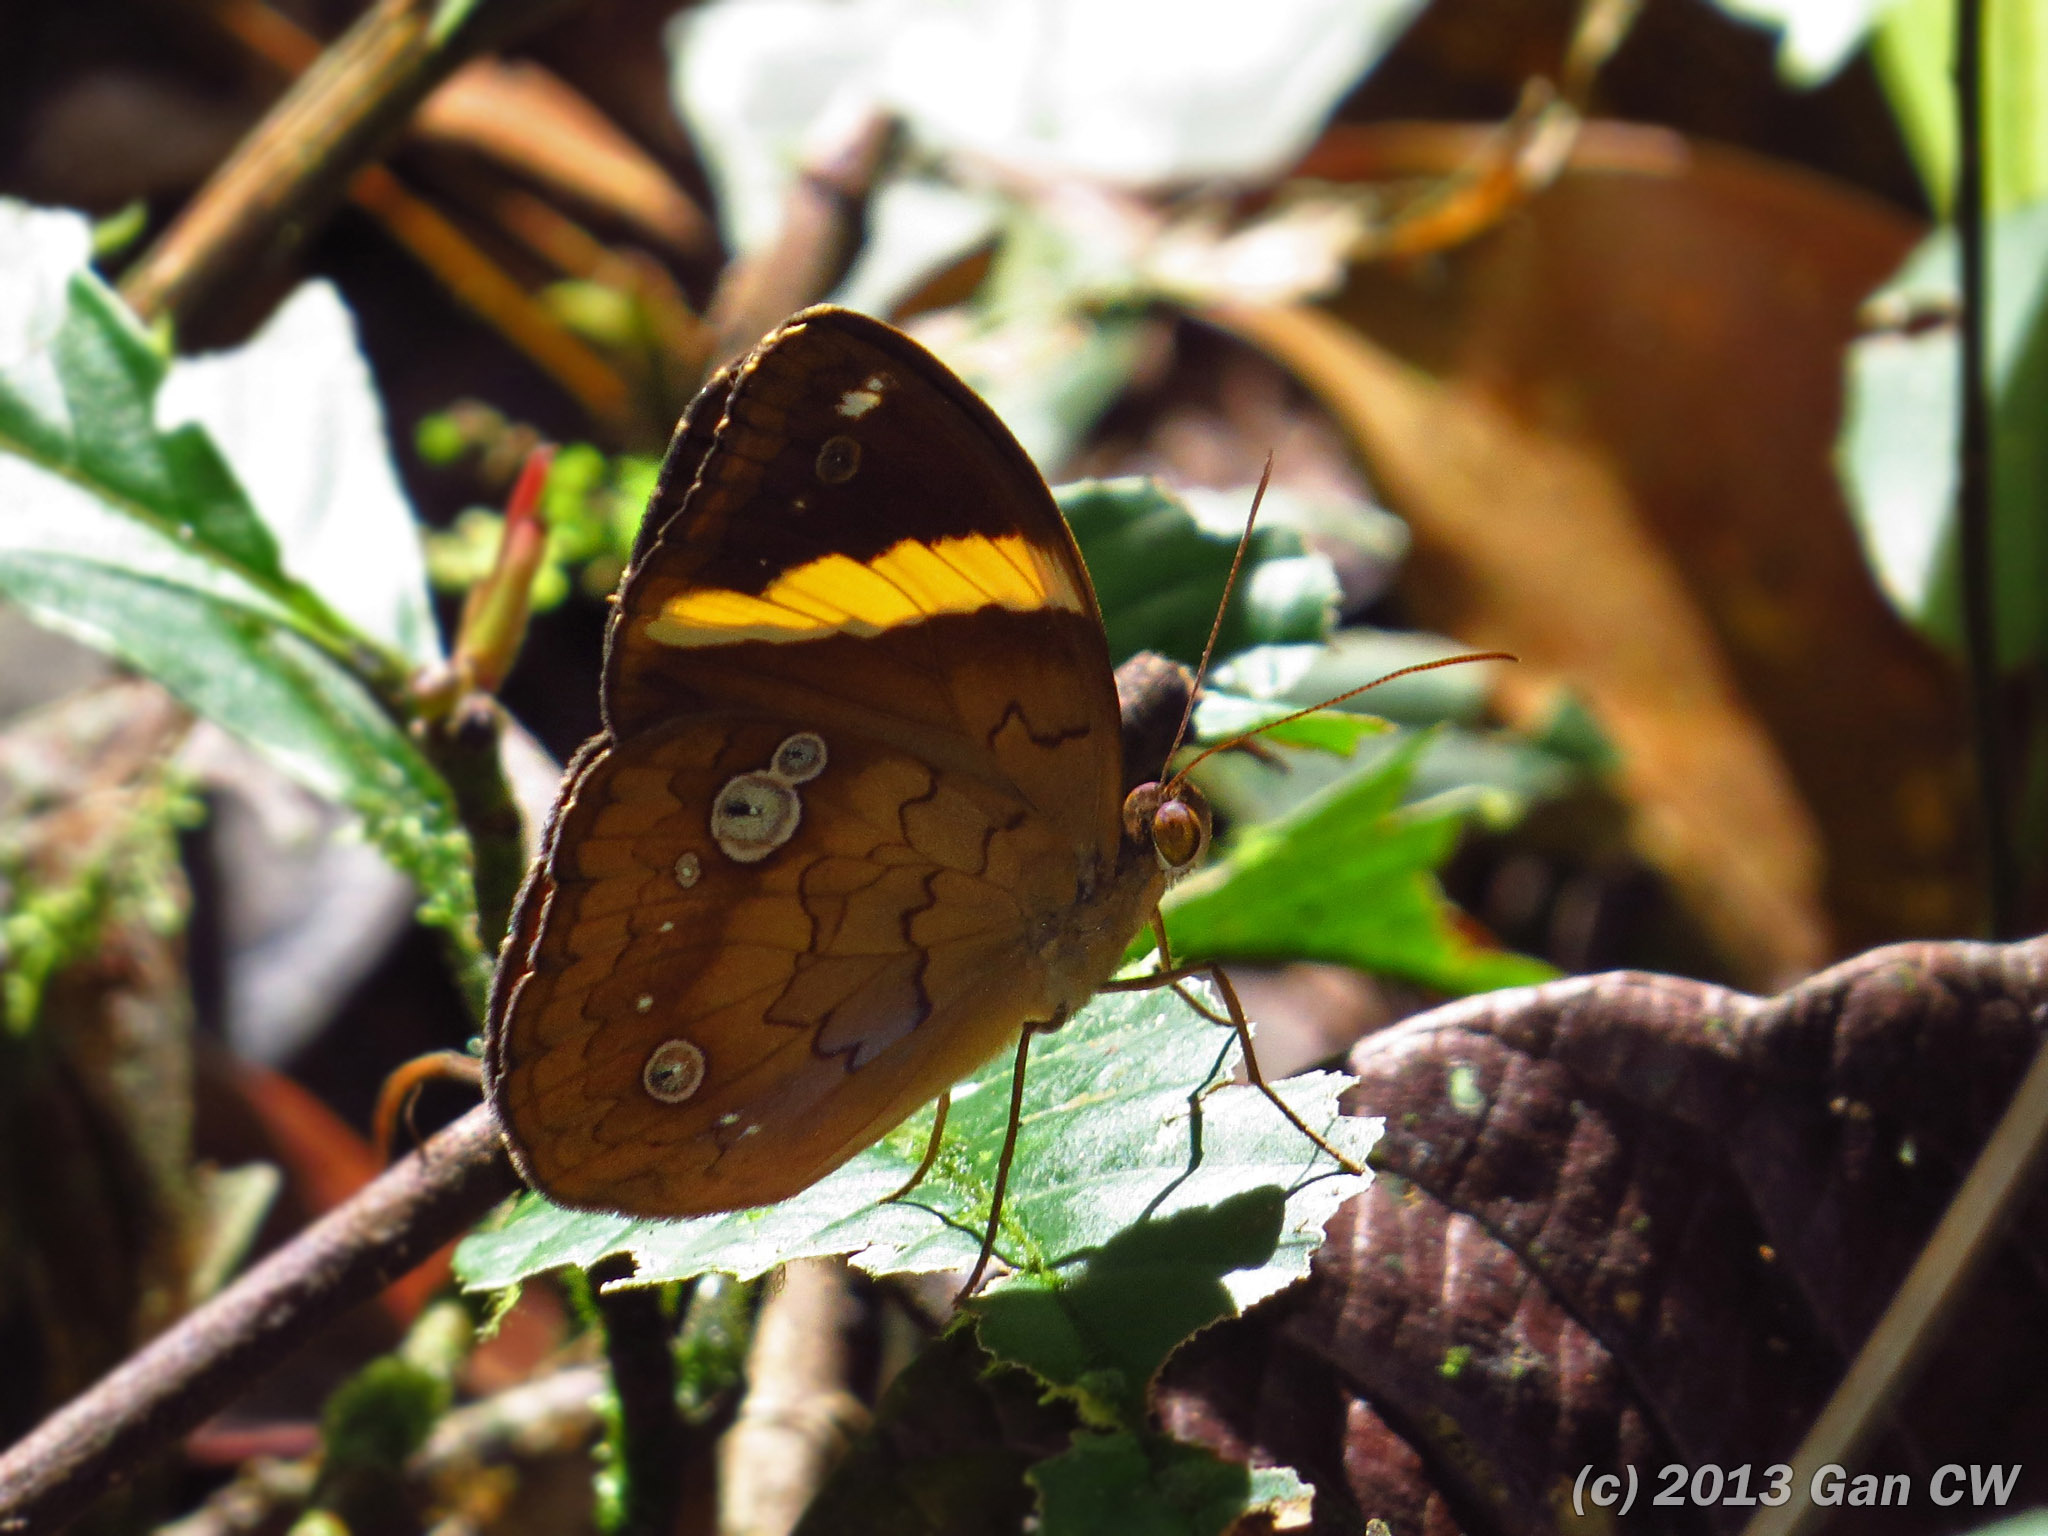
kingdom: Animalia
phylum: Arthropoda
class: Insecta
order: Lepidoptera
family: Nymphalidae
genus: Xanthotaenia
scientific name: Xanthotaenia busiris
